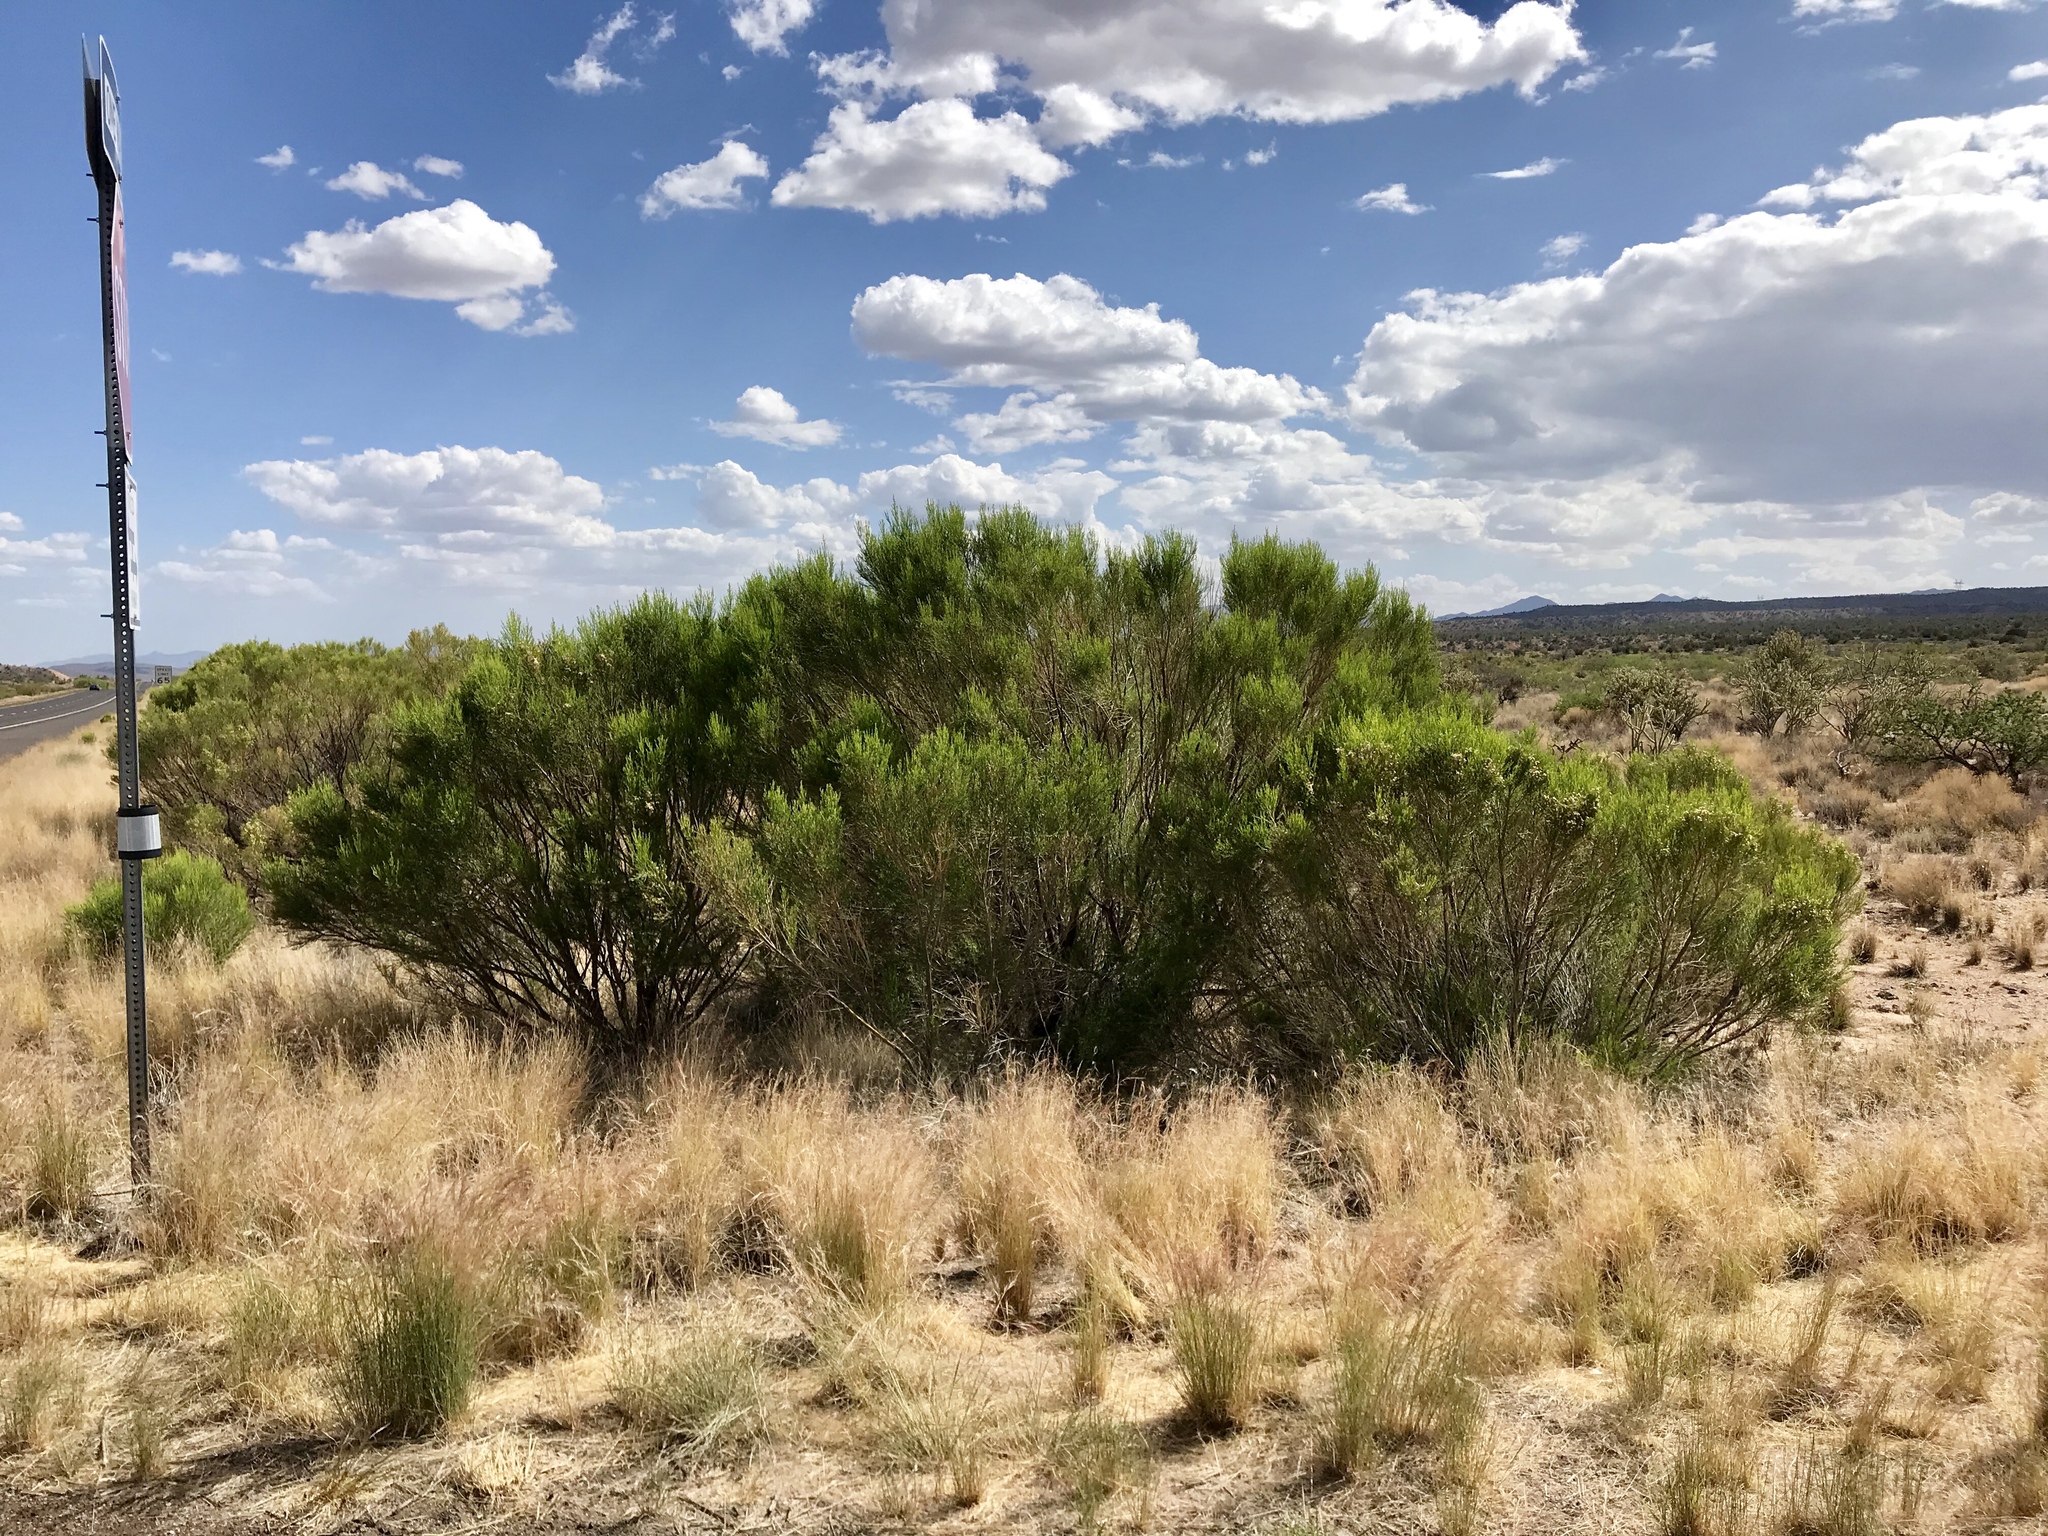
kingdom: Plantae
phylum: Tracheophyta
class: Magnoliopsida
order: Asterales
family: Asteraceae
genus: Baccharis
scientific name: Baccharis sarothroides
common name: Desert-broom
